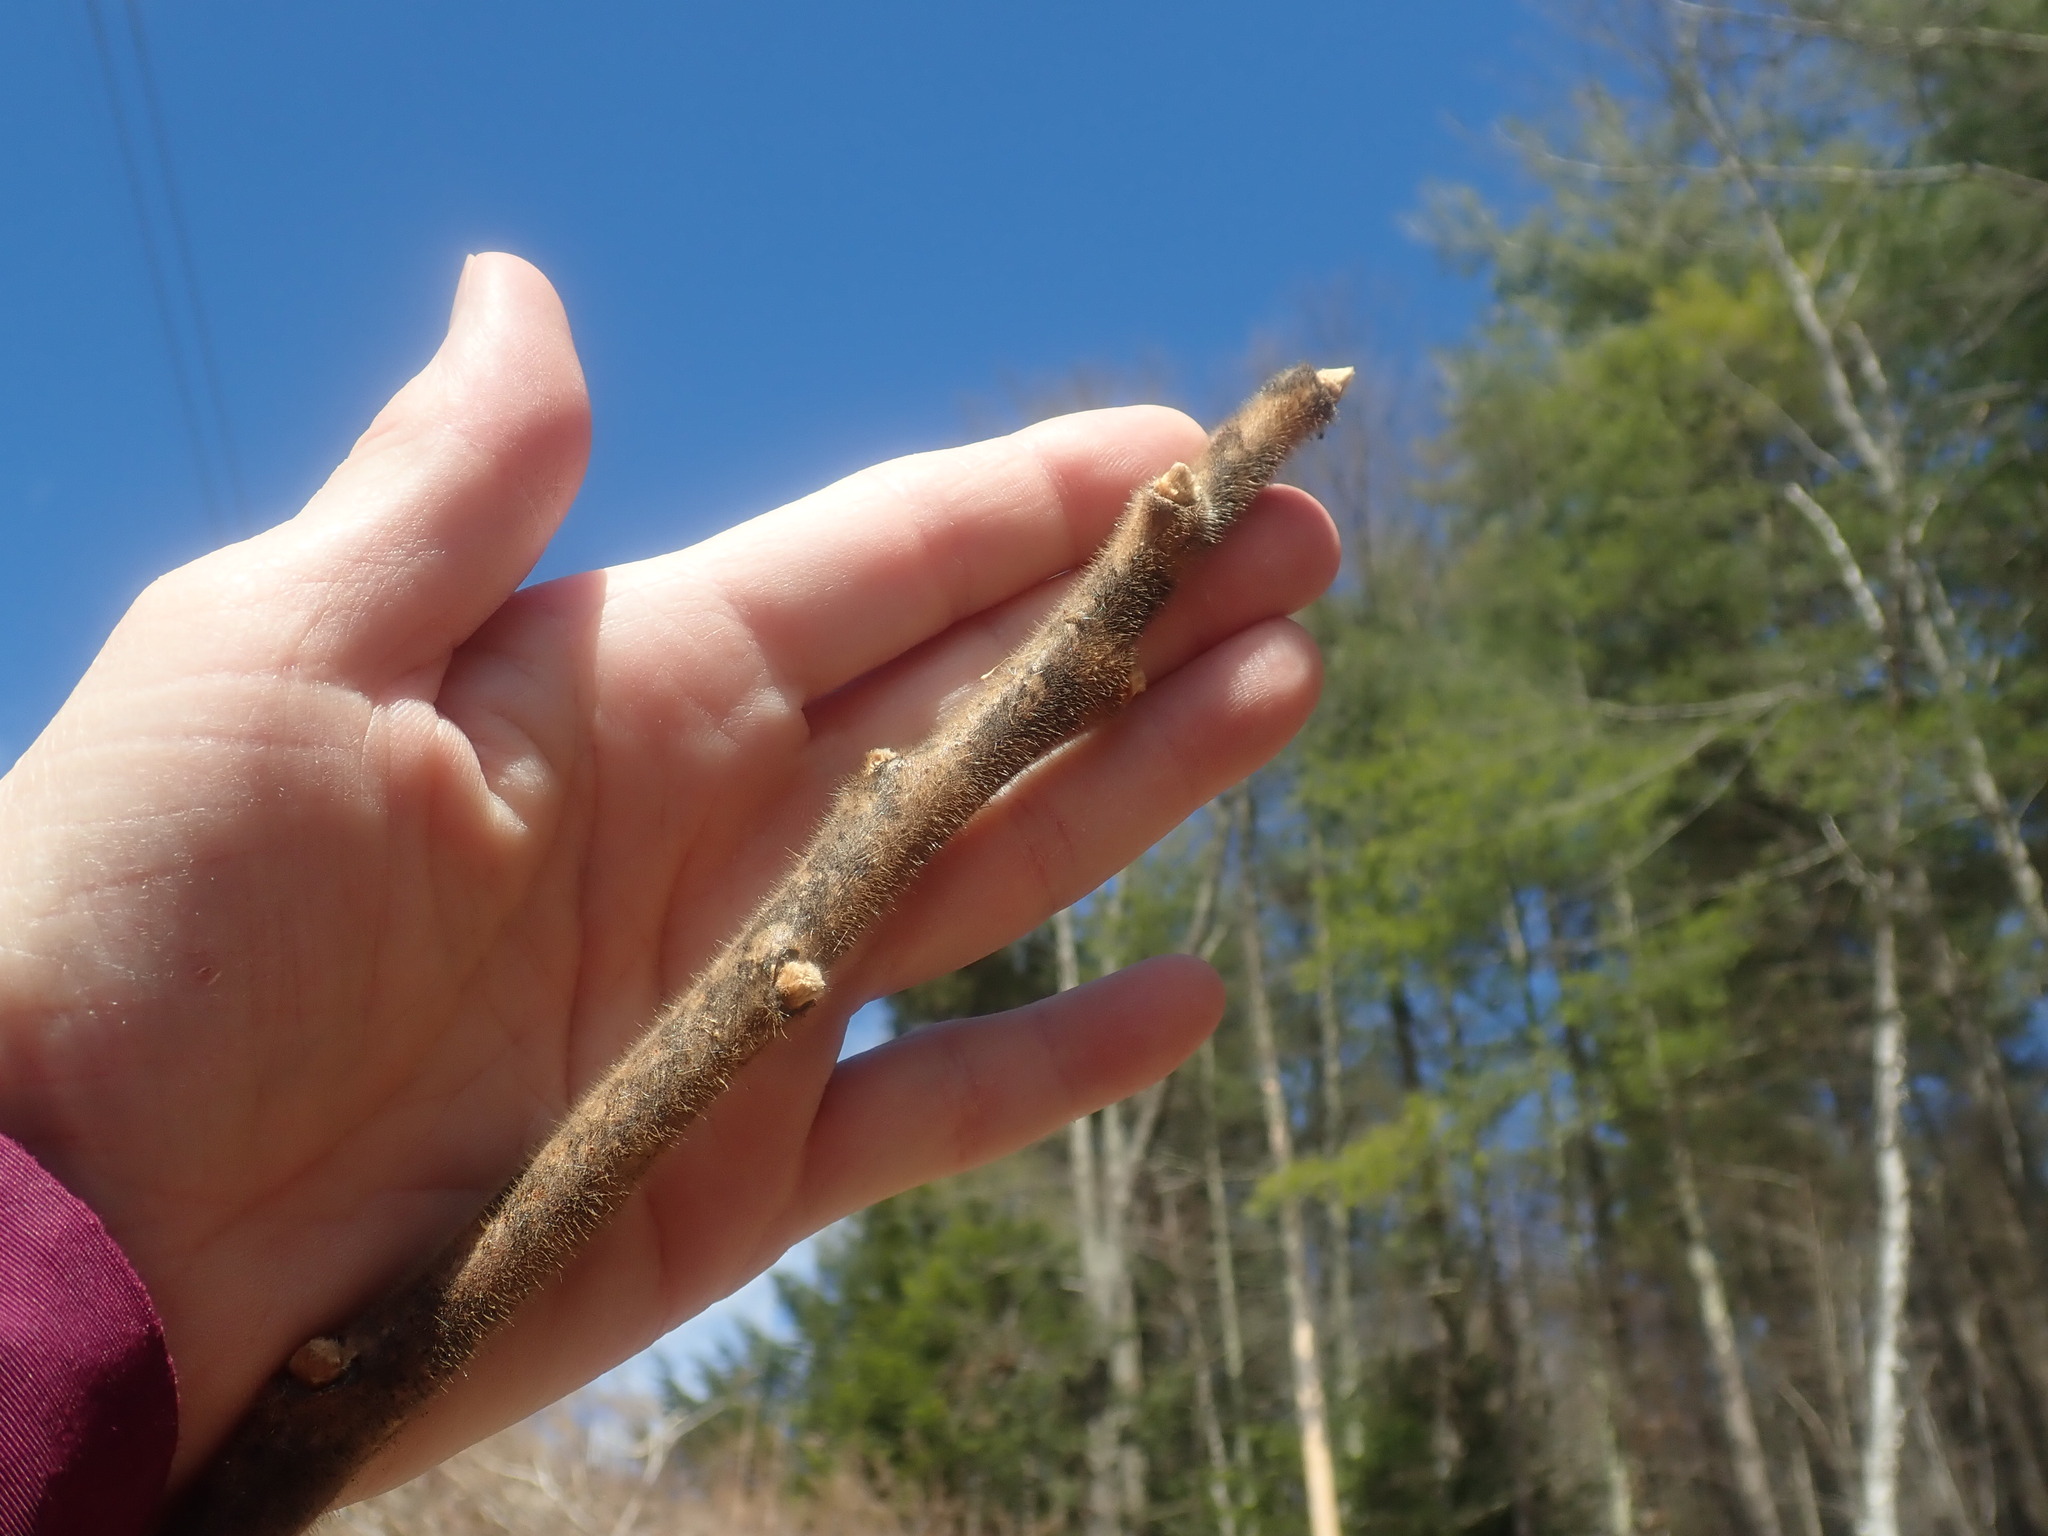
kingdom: Plantae
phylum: Tracheophyta
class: Magnoliopsida
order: Sapindales
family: Anacardiaceae
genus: Rhus
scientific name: Rhus typhina
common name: Staghorn sumac
